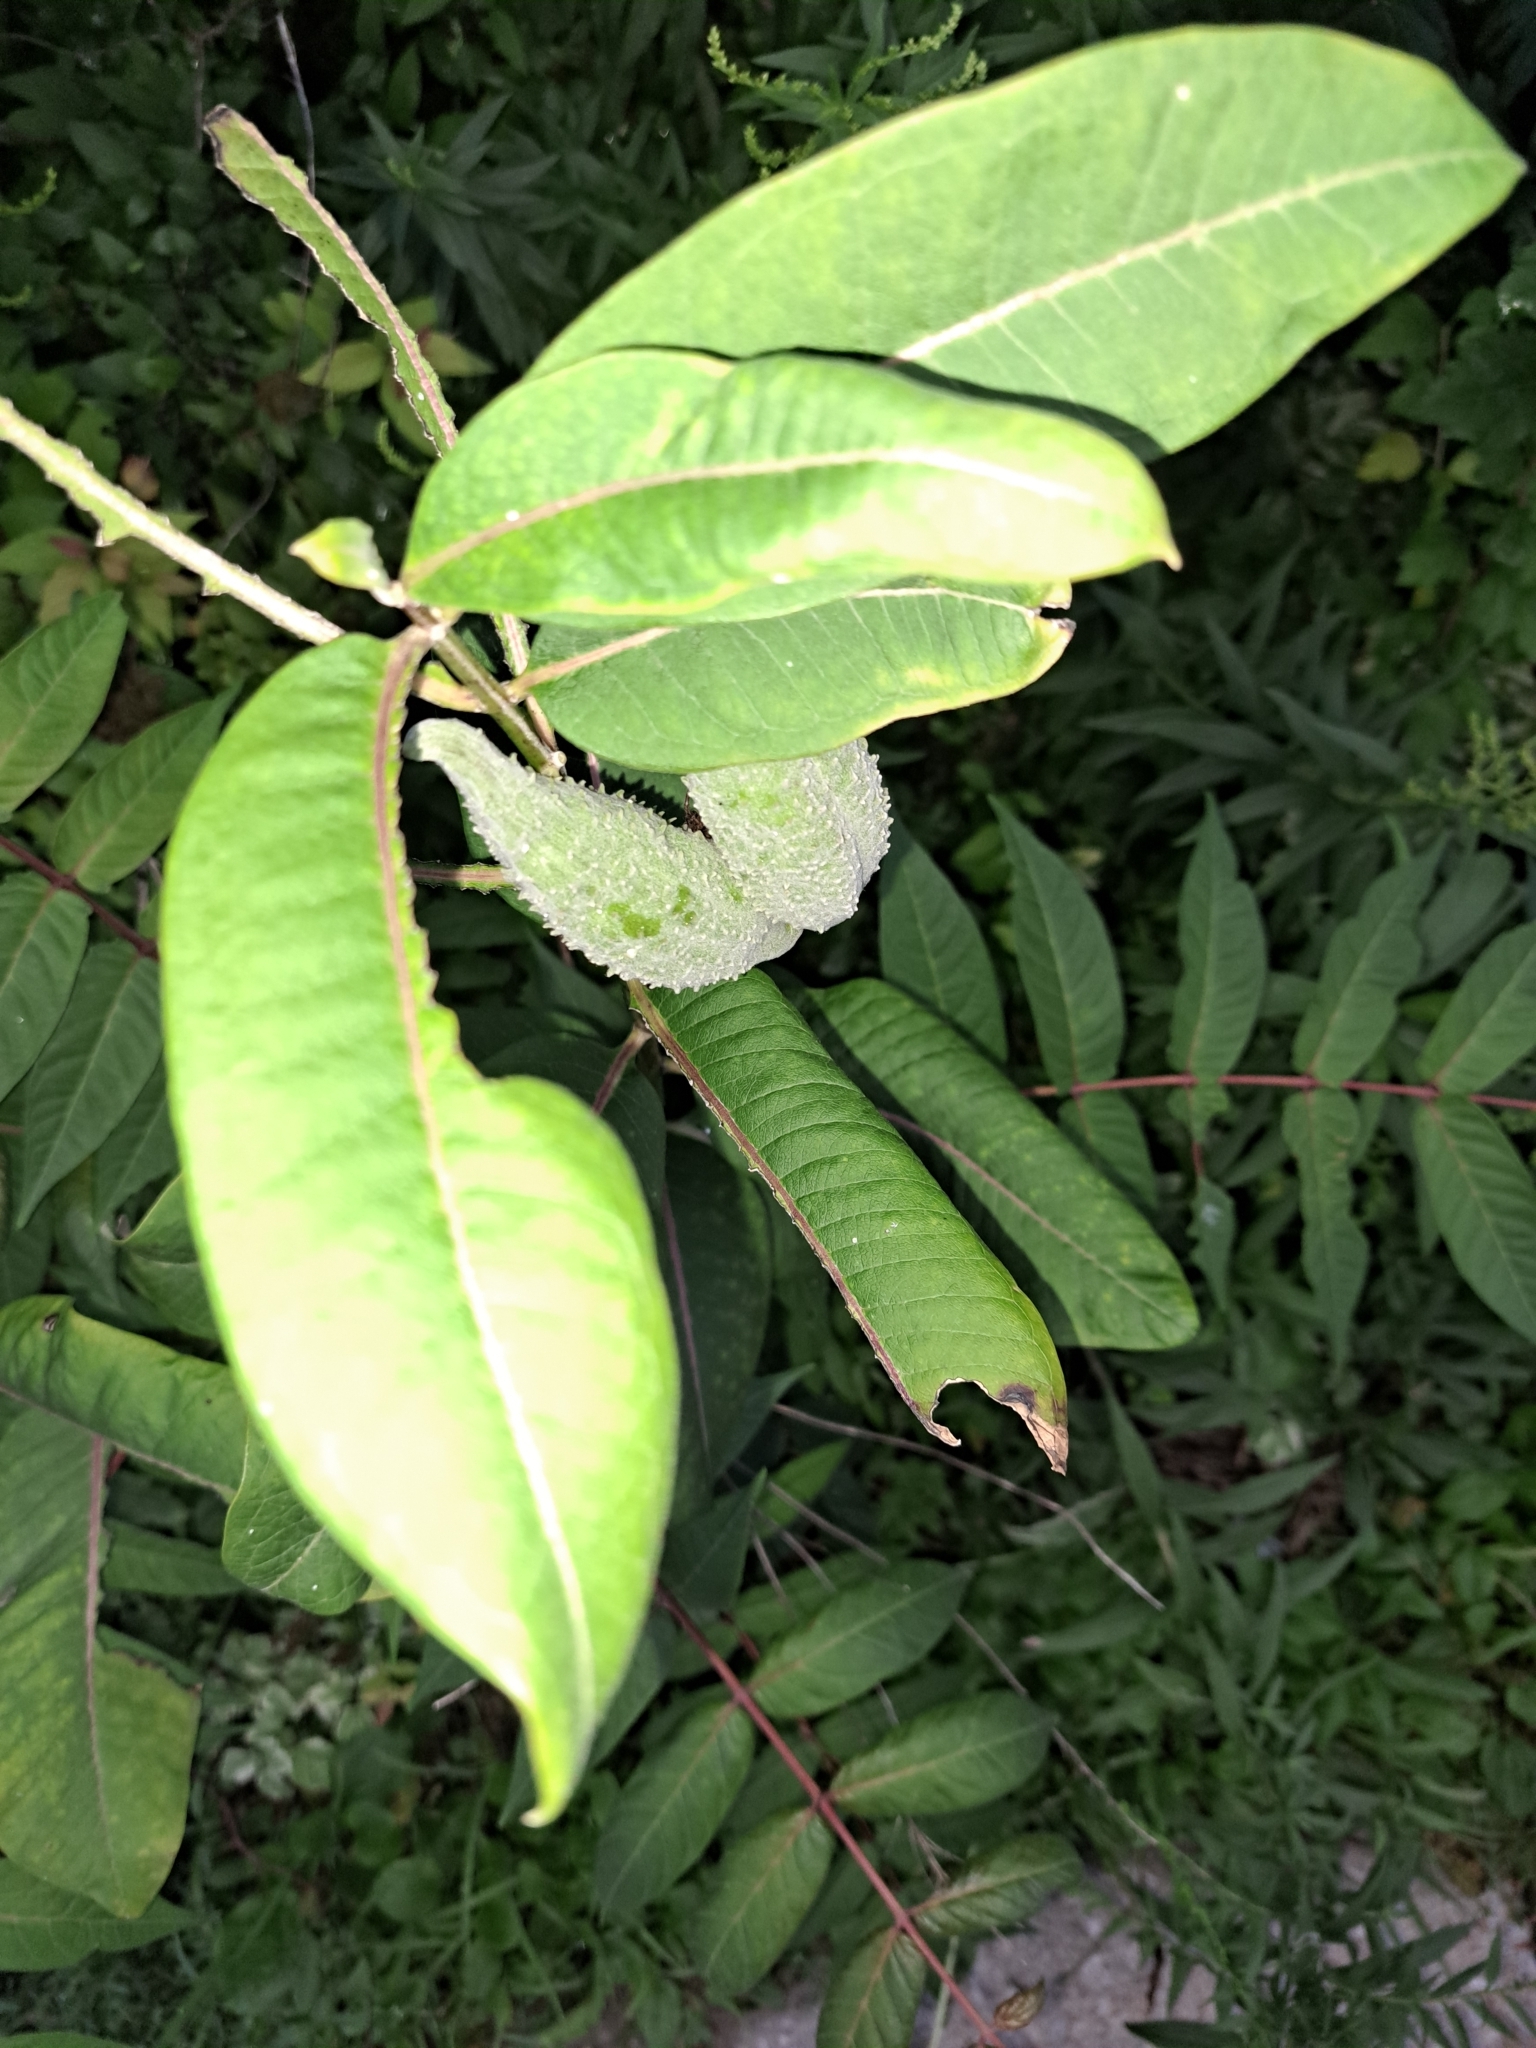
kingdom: Plantae
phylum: Tracheophyta
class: Magnoliopsida
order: Gentianales
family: Apocynaceae
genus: Asclepias
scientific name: Asclepias syriaca
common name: Common milkweed
